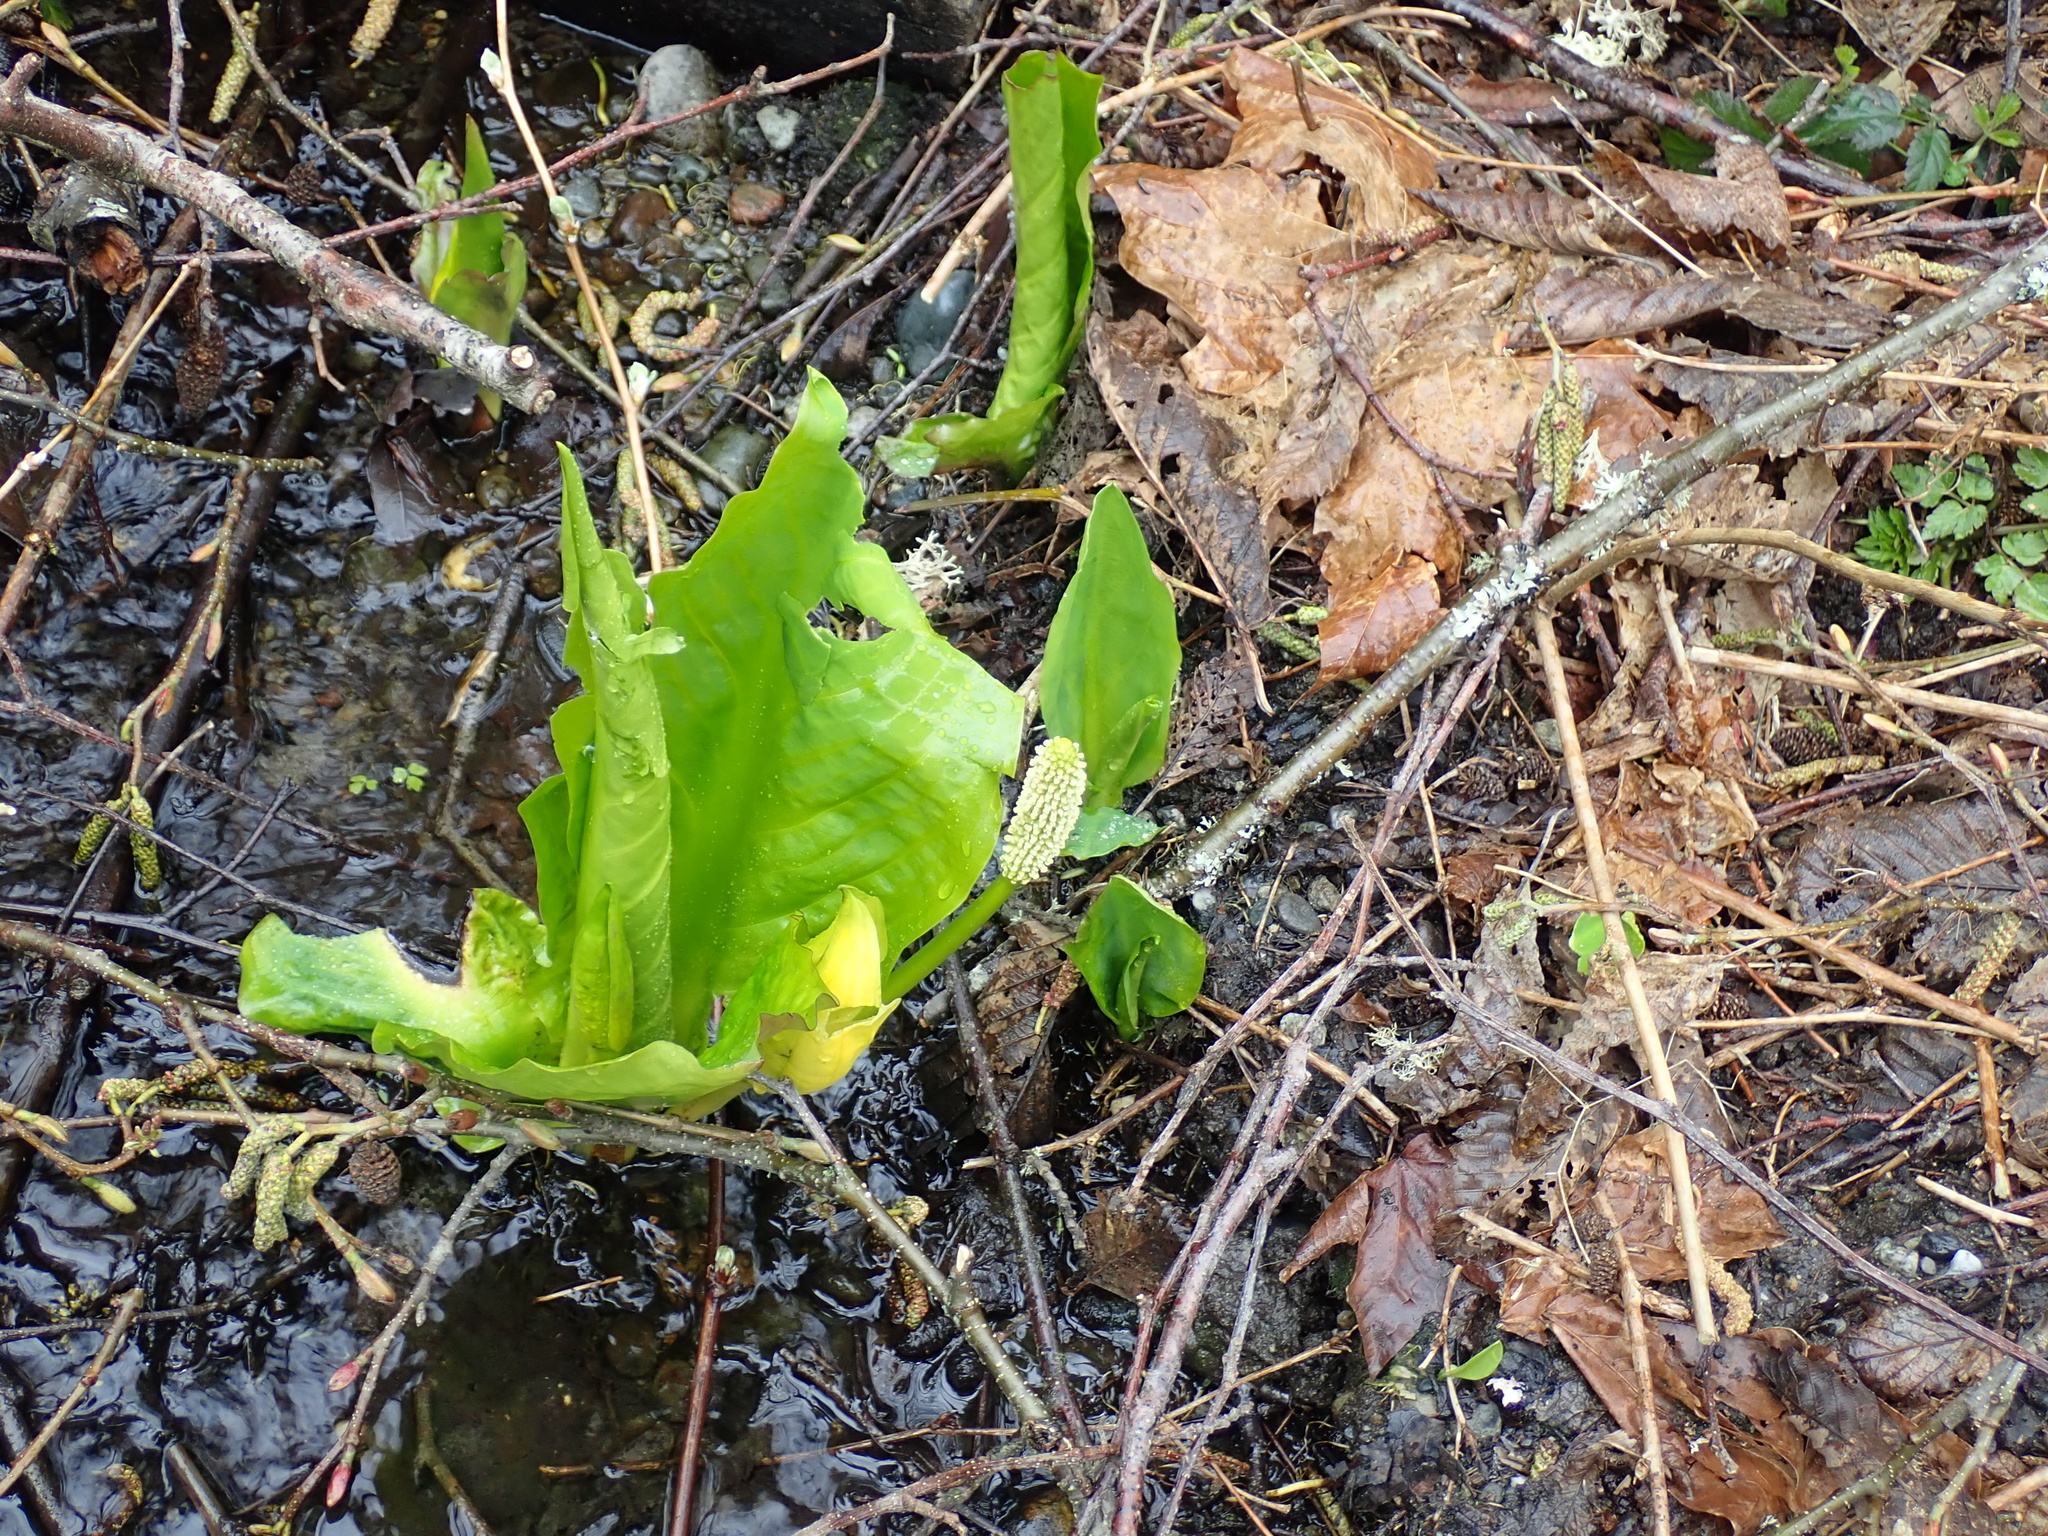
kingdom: Plantae
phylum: Tracheophyta
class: Liliopsida
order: Alismatales
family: Araceae
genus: Lysichiton
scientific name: Lysichiton americanus
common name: American skunk cabbage
